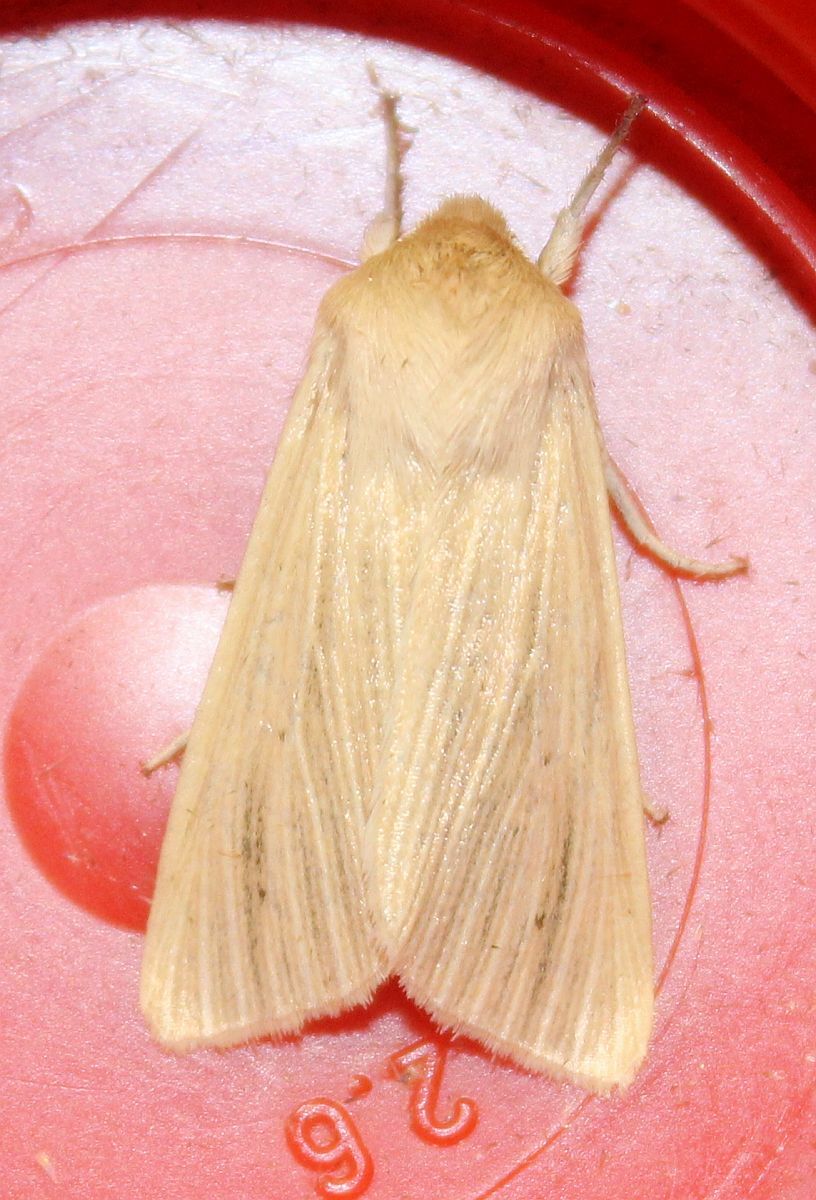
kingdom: Animalia
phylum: Arthropoda
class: Insecta
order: Lepidoptera
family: Noctuidae
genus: Mythimna
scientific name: Mythimna pallens
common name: Common wainscot
